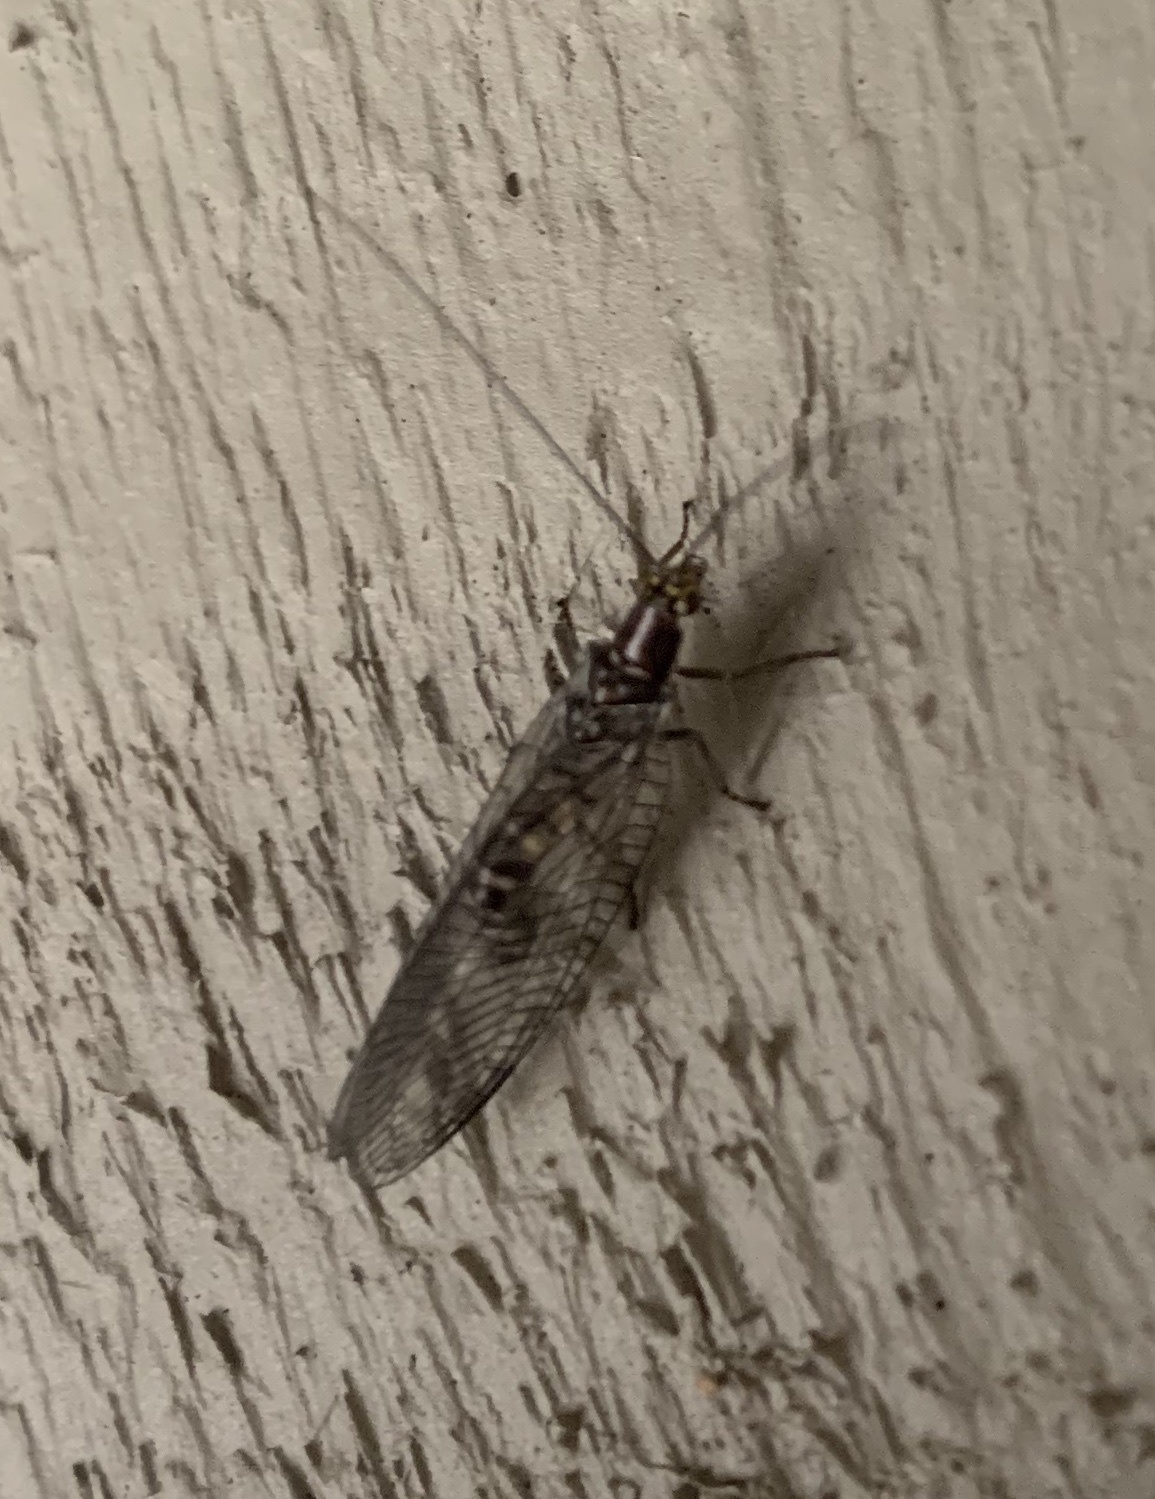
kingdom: Animalia
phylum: Arthropoda
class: Insecta
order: Neuroptera
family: Chrysopidae
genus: Nothochrysa
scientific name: Nothochrysa californica
